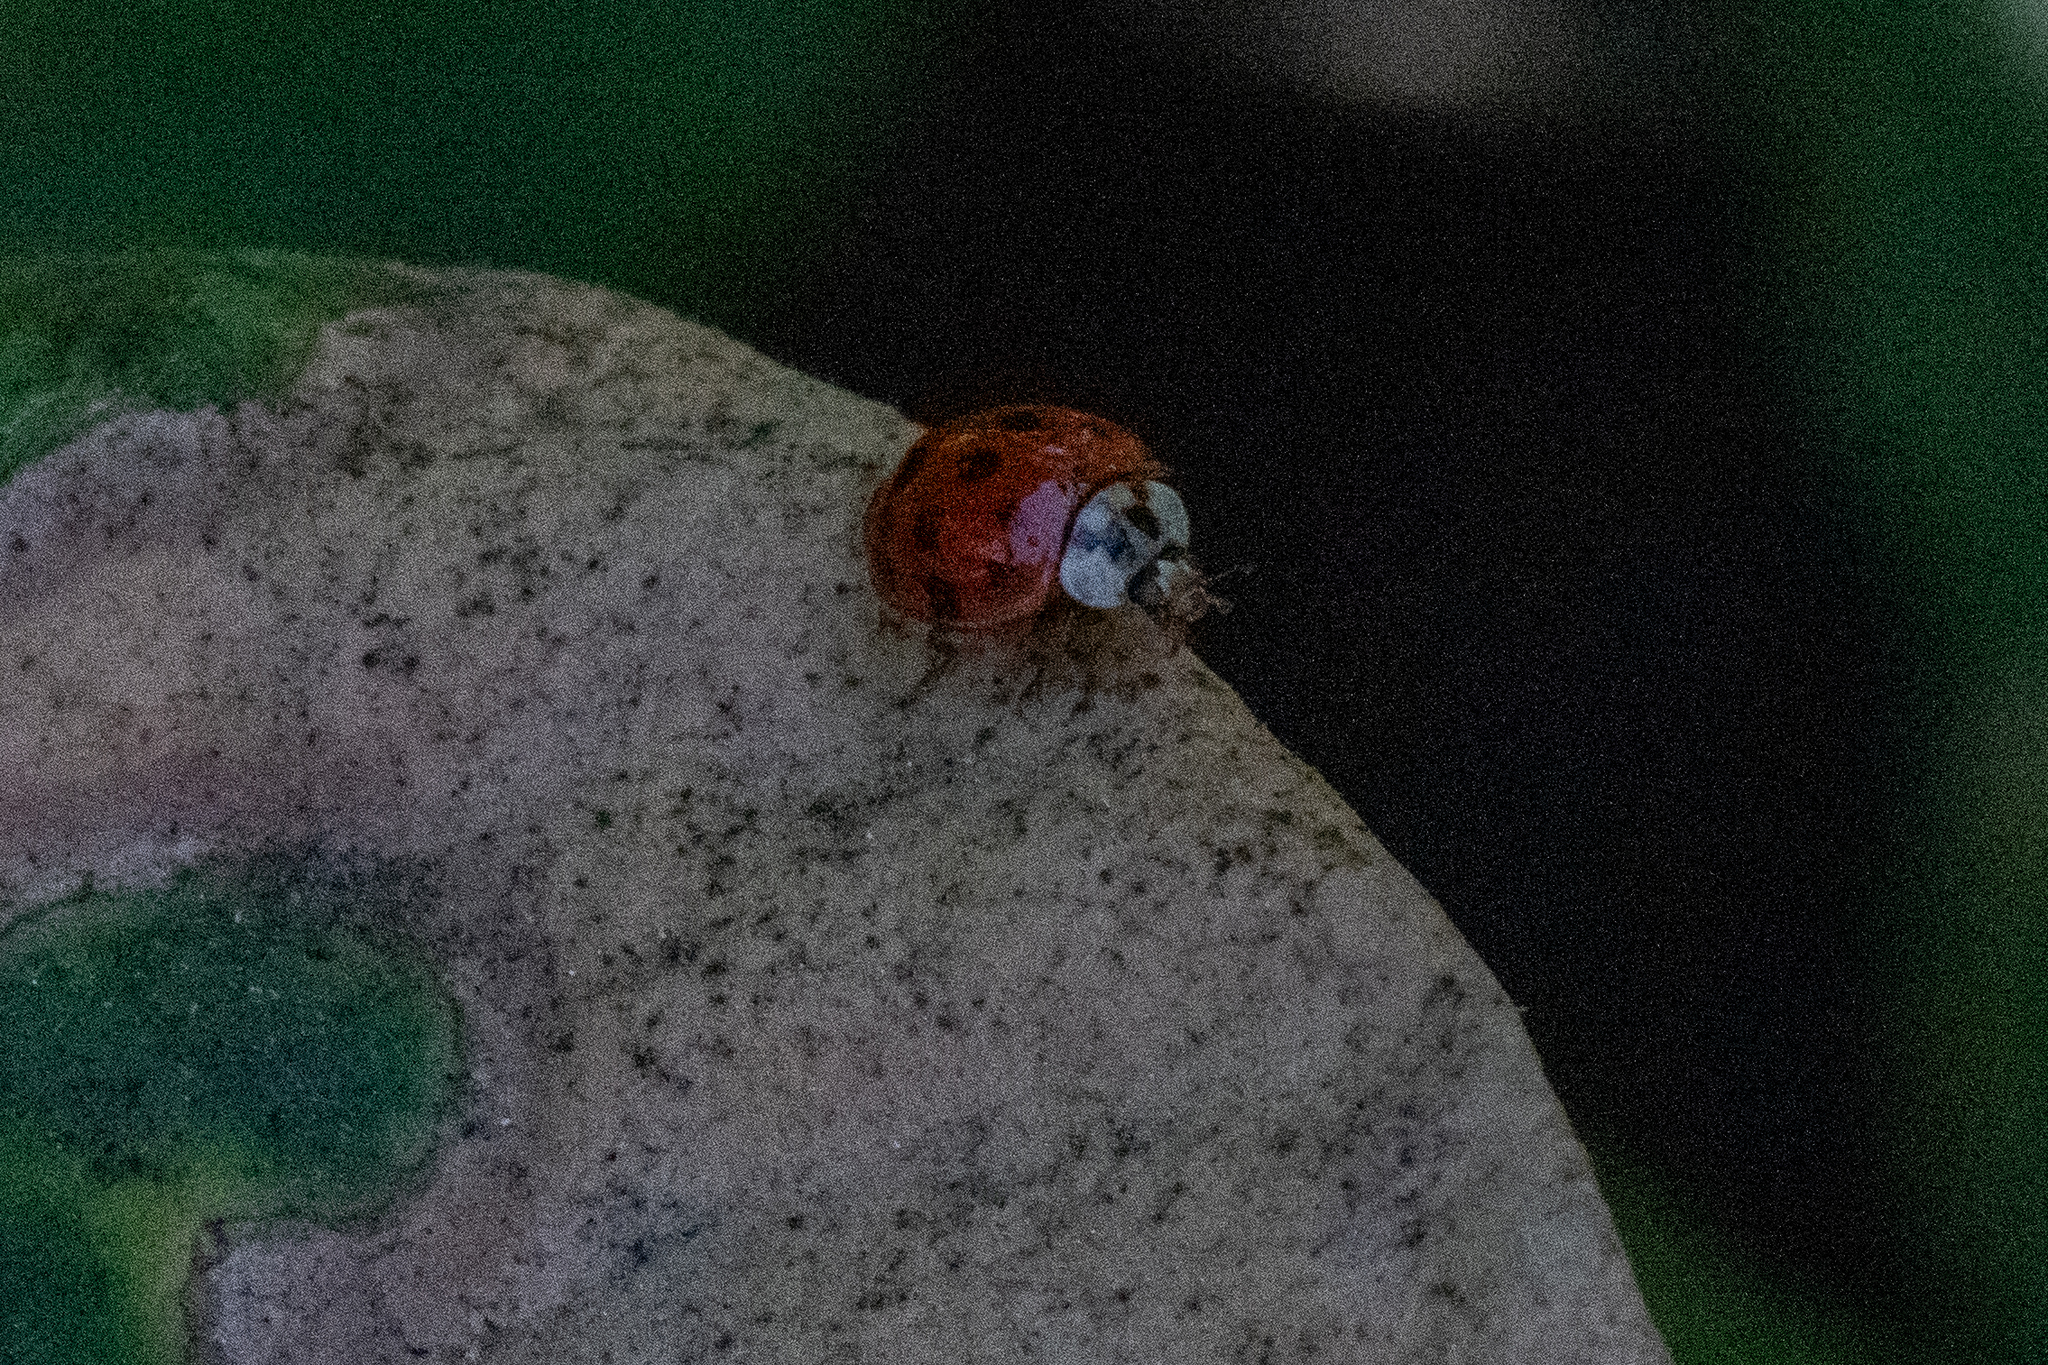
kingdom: Animalia
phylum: Arthropoda
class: Insecta
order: Coleoptera
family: Coccinellidae
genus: Harmonia
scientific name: Harmonia axyridis
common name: Harlequin ladybird
